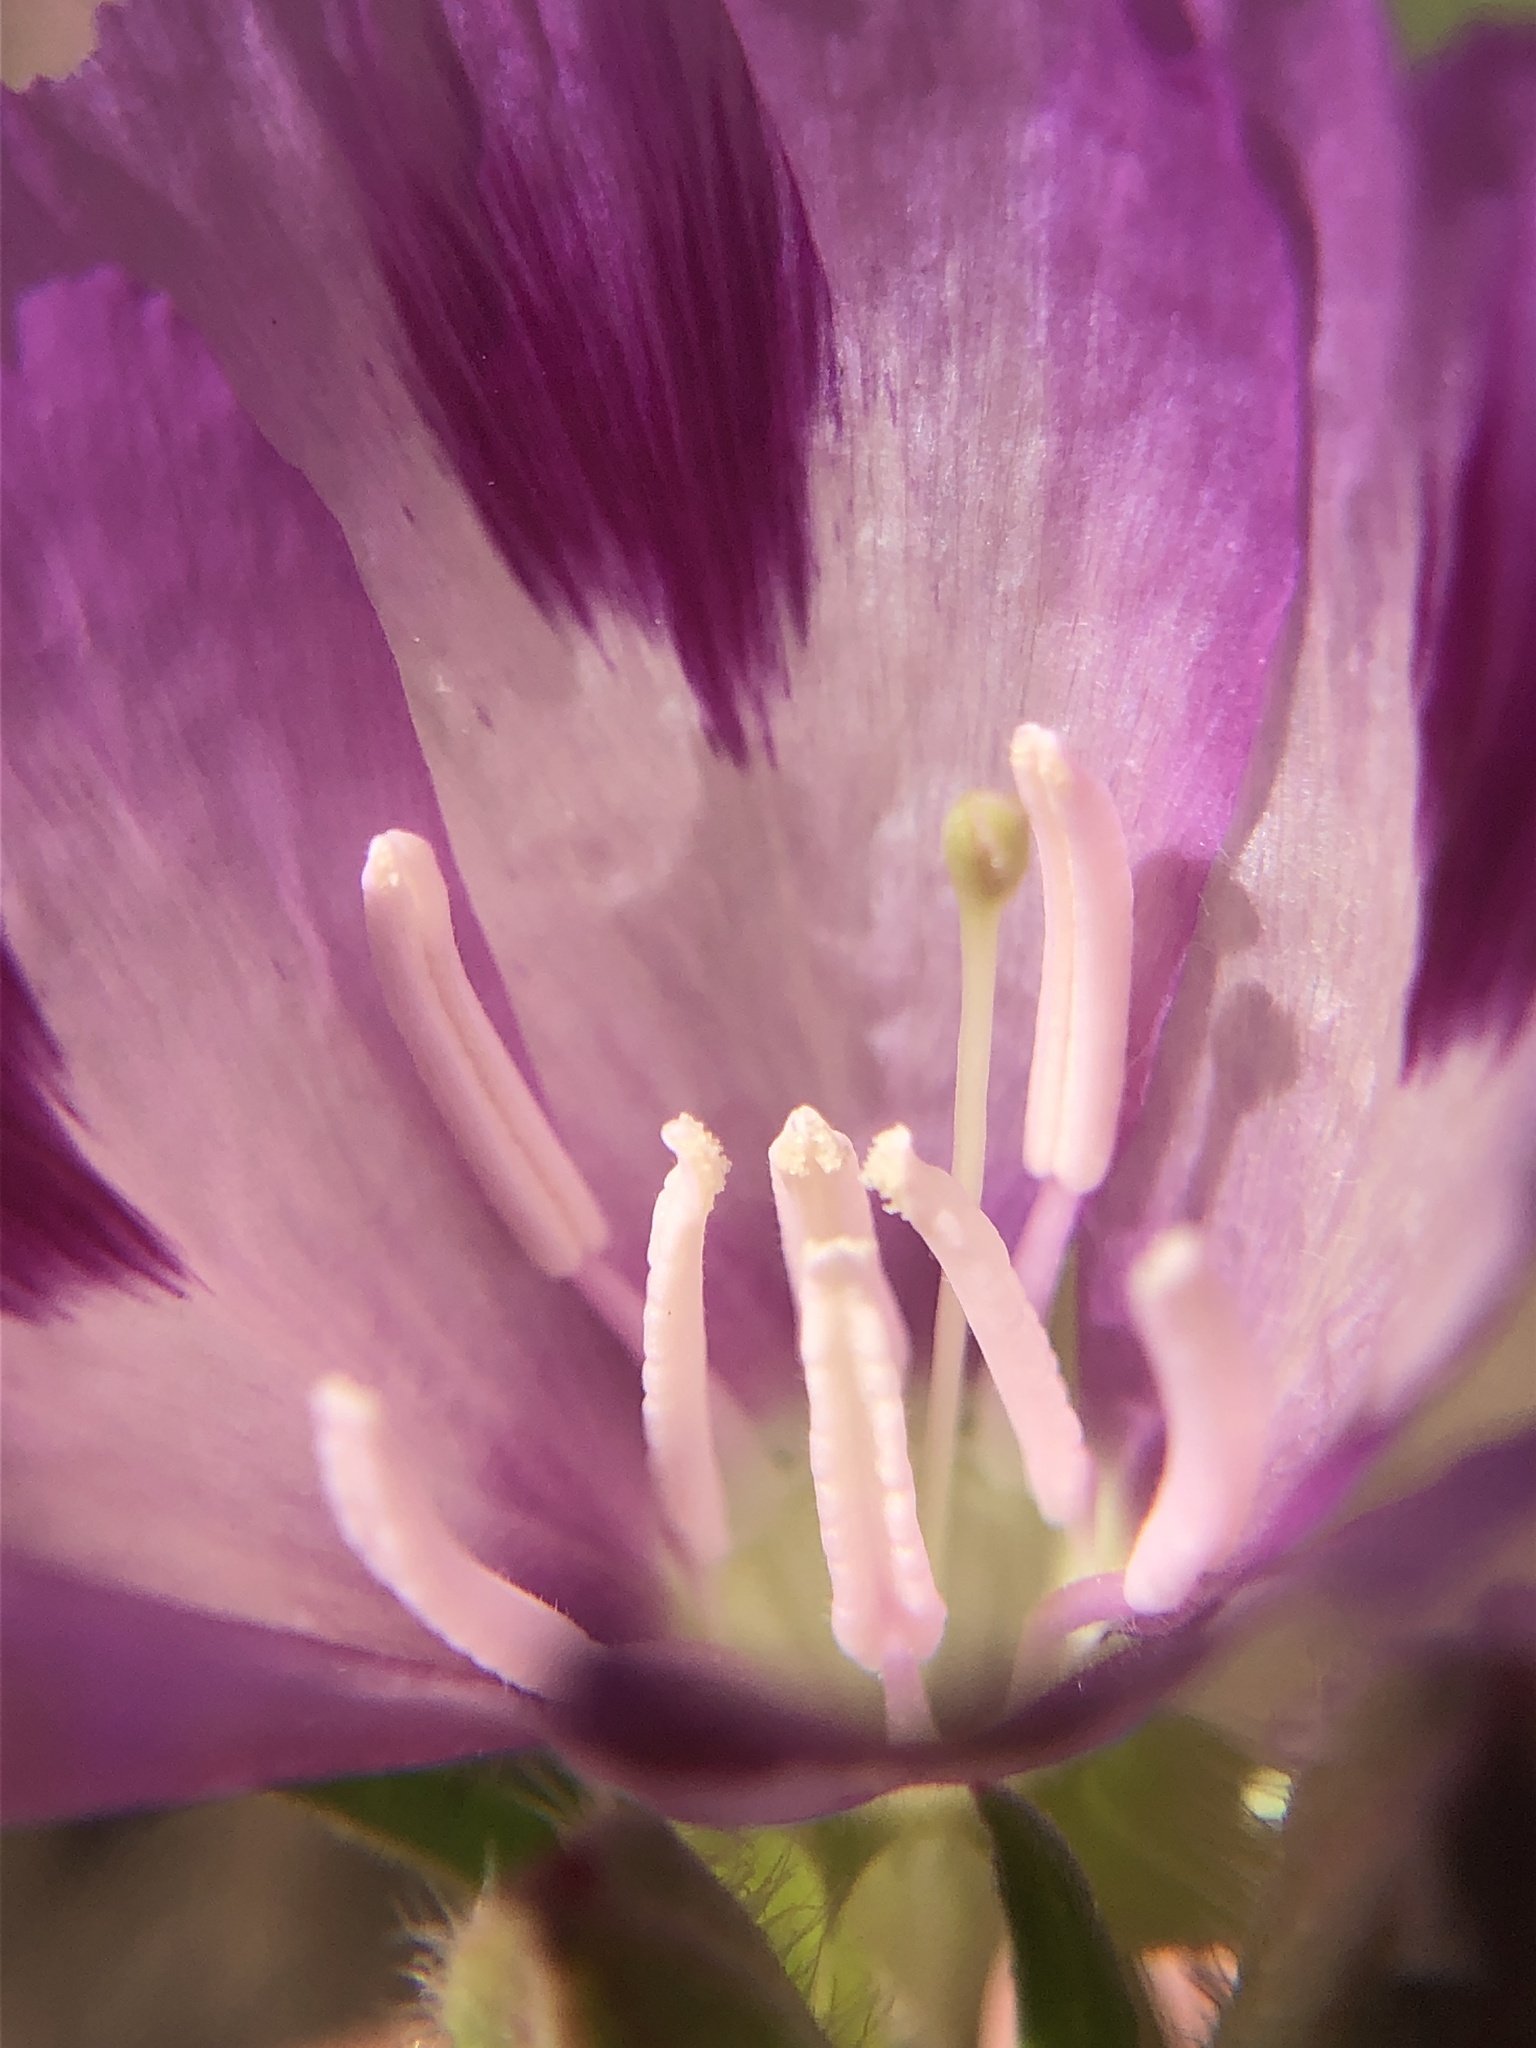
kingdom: Plantae
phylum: Tracheophyta
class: Magnoliopsida
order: Myrtales
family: Onagraceae
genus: Clarkia
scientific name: Clarkia williamsonii
